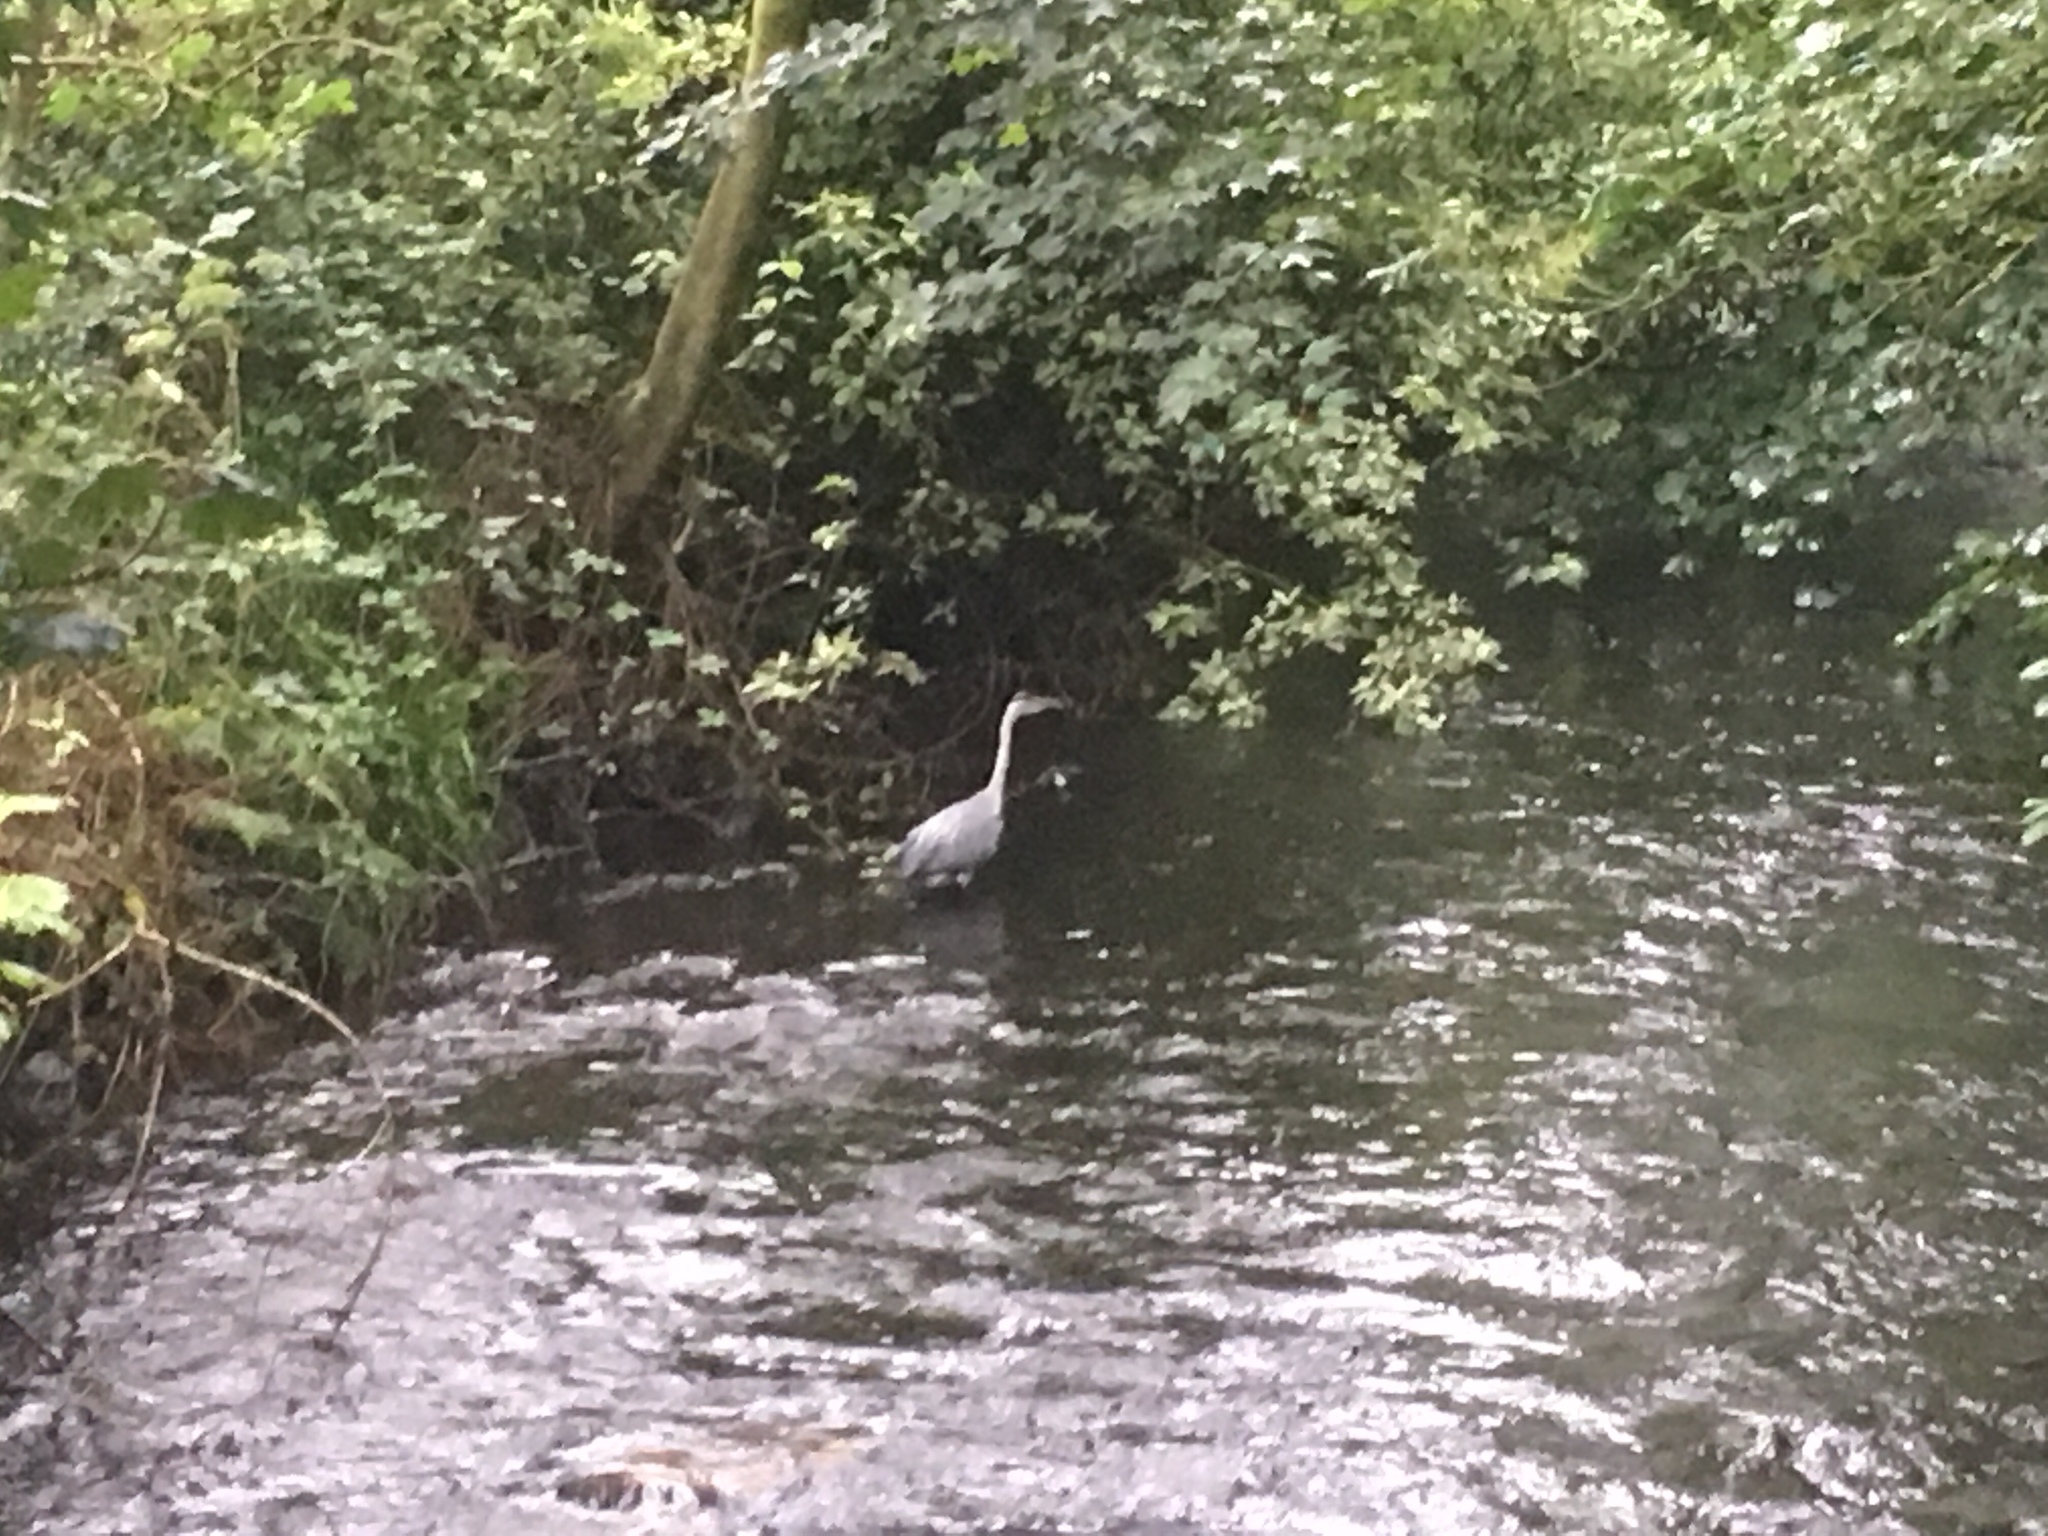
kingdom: Animalia
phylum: Chordata
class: Aves
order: Pelecaniformes
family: Ardeidae
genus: Ardea
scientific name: Ardea cinerea
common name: Grey heron
